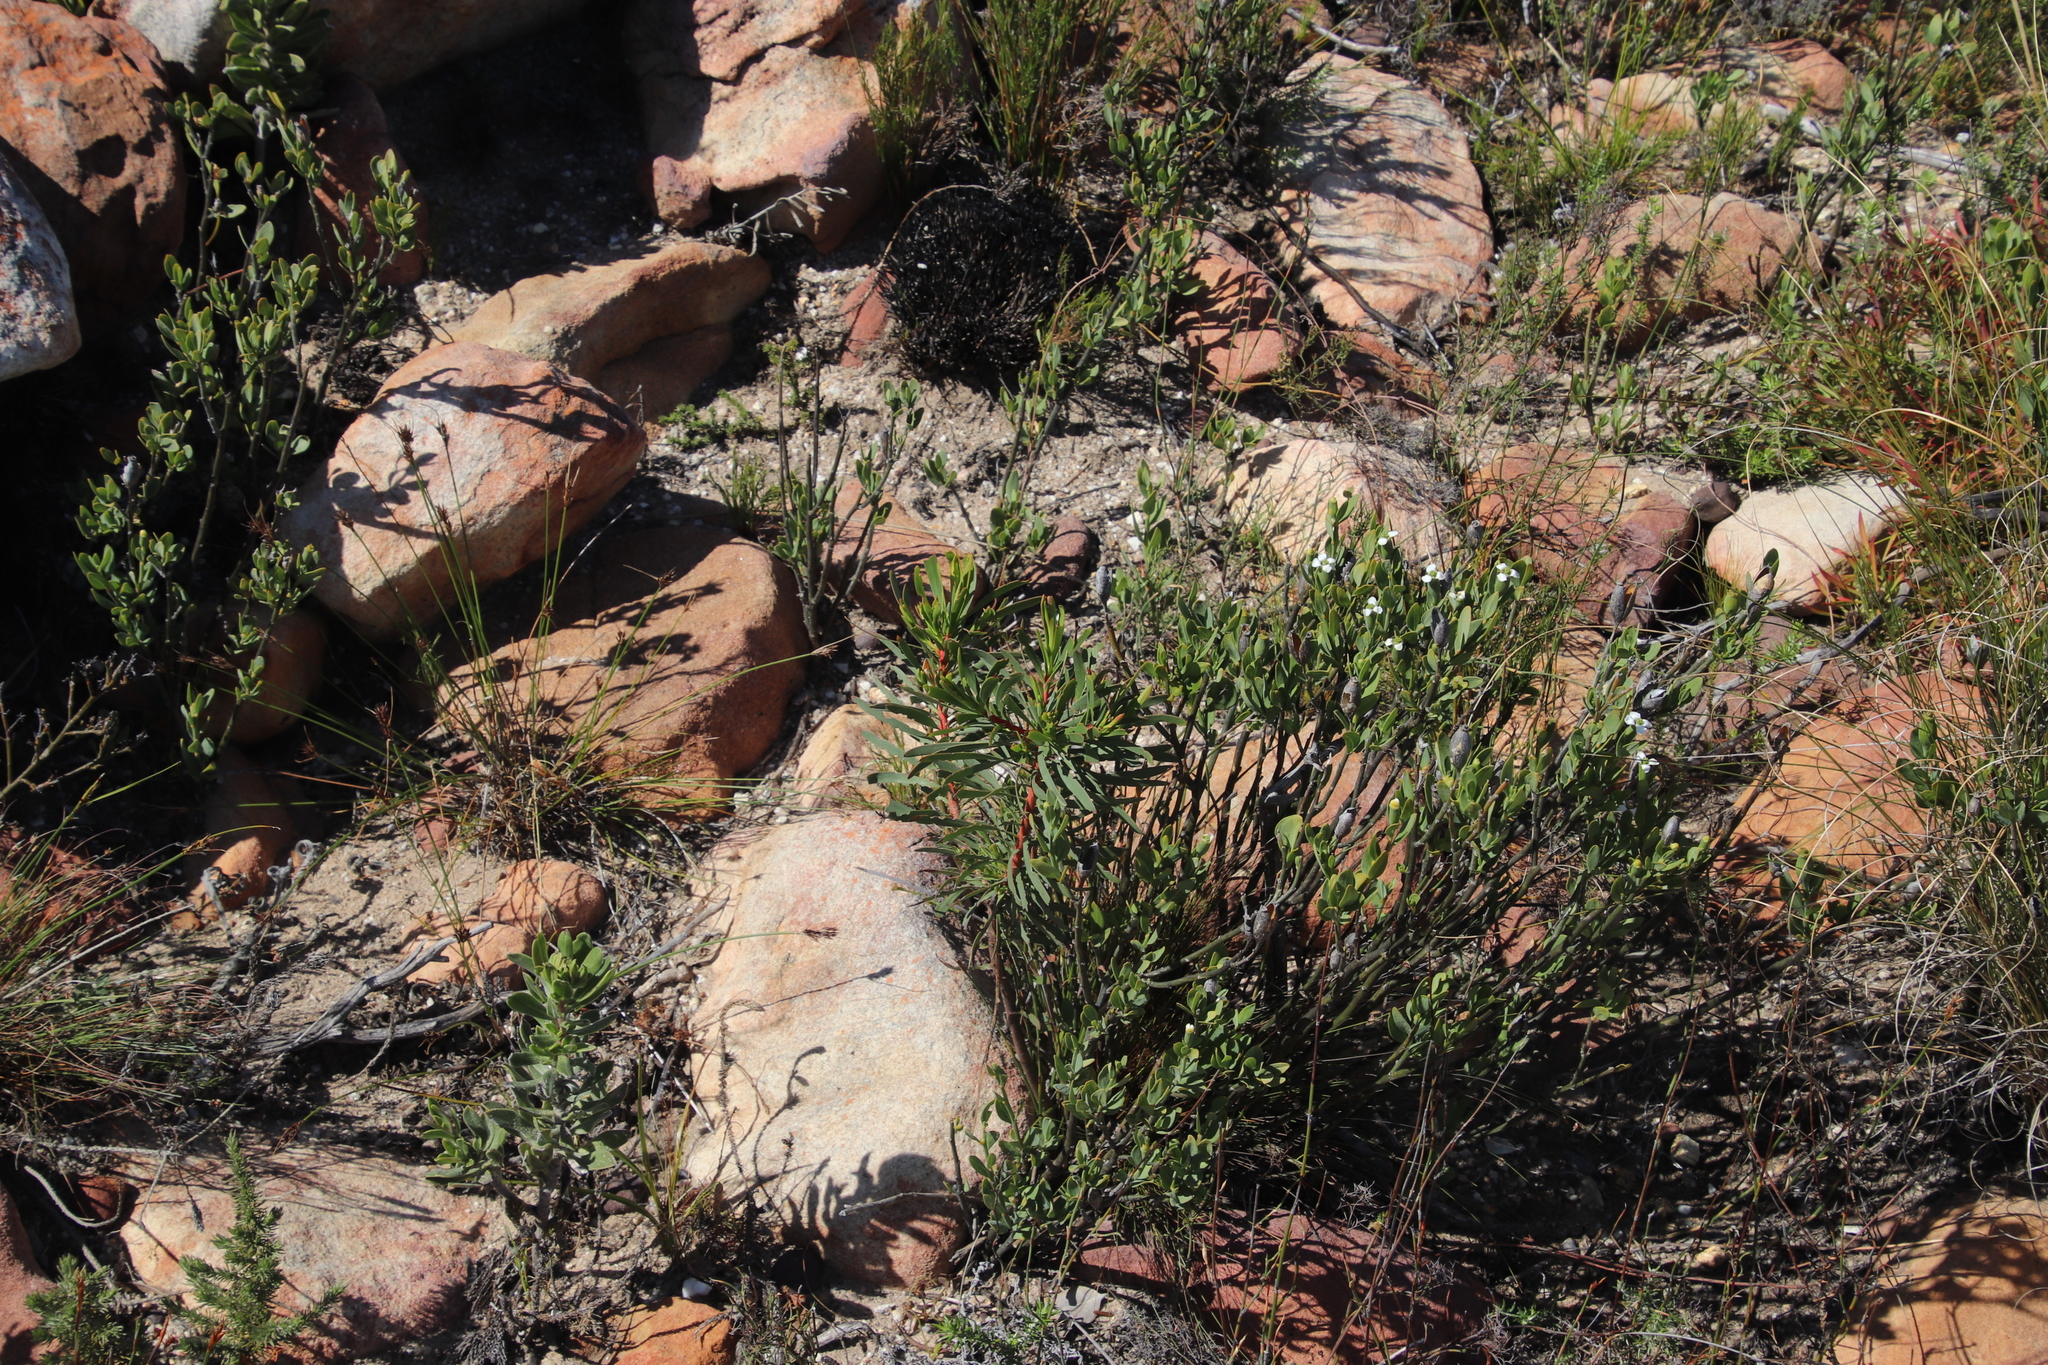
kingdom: Plantae
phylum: Tracheophyta
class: Magnoliopsida
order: Solanales
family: Montiniaceae
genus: Montinia
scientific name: Montinia caryophyllacea
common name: Wild clove-bush
